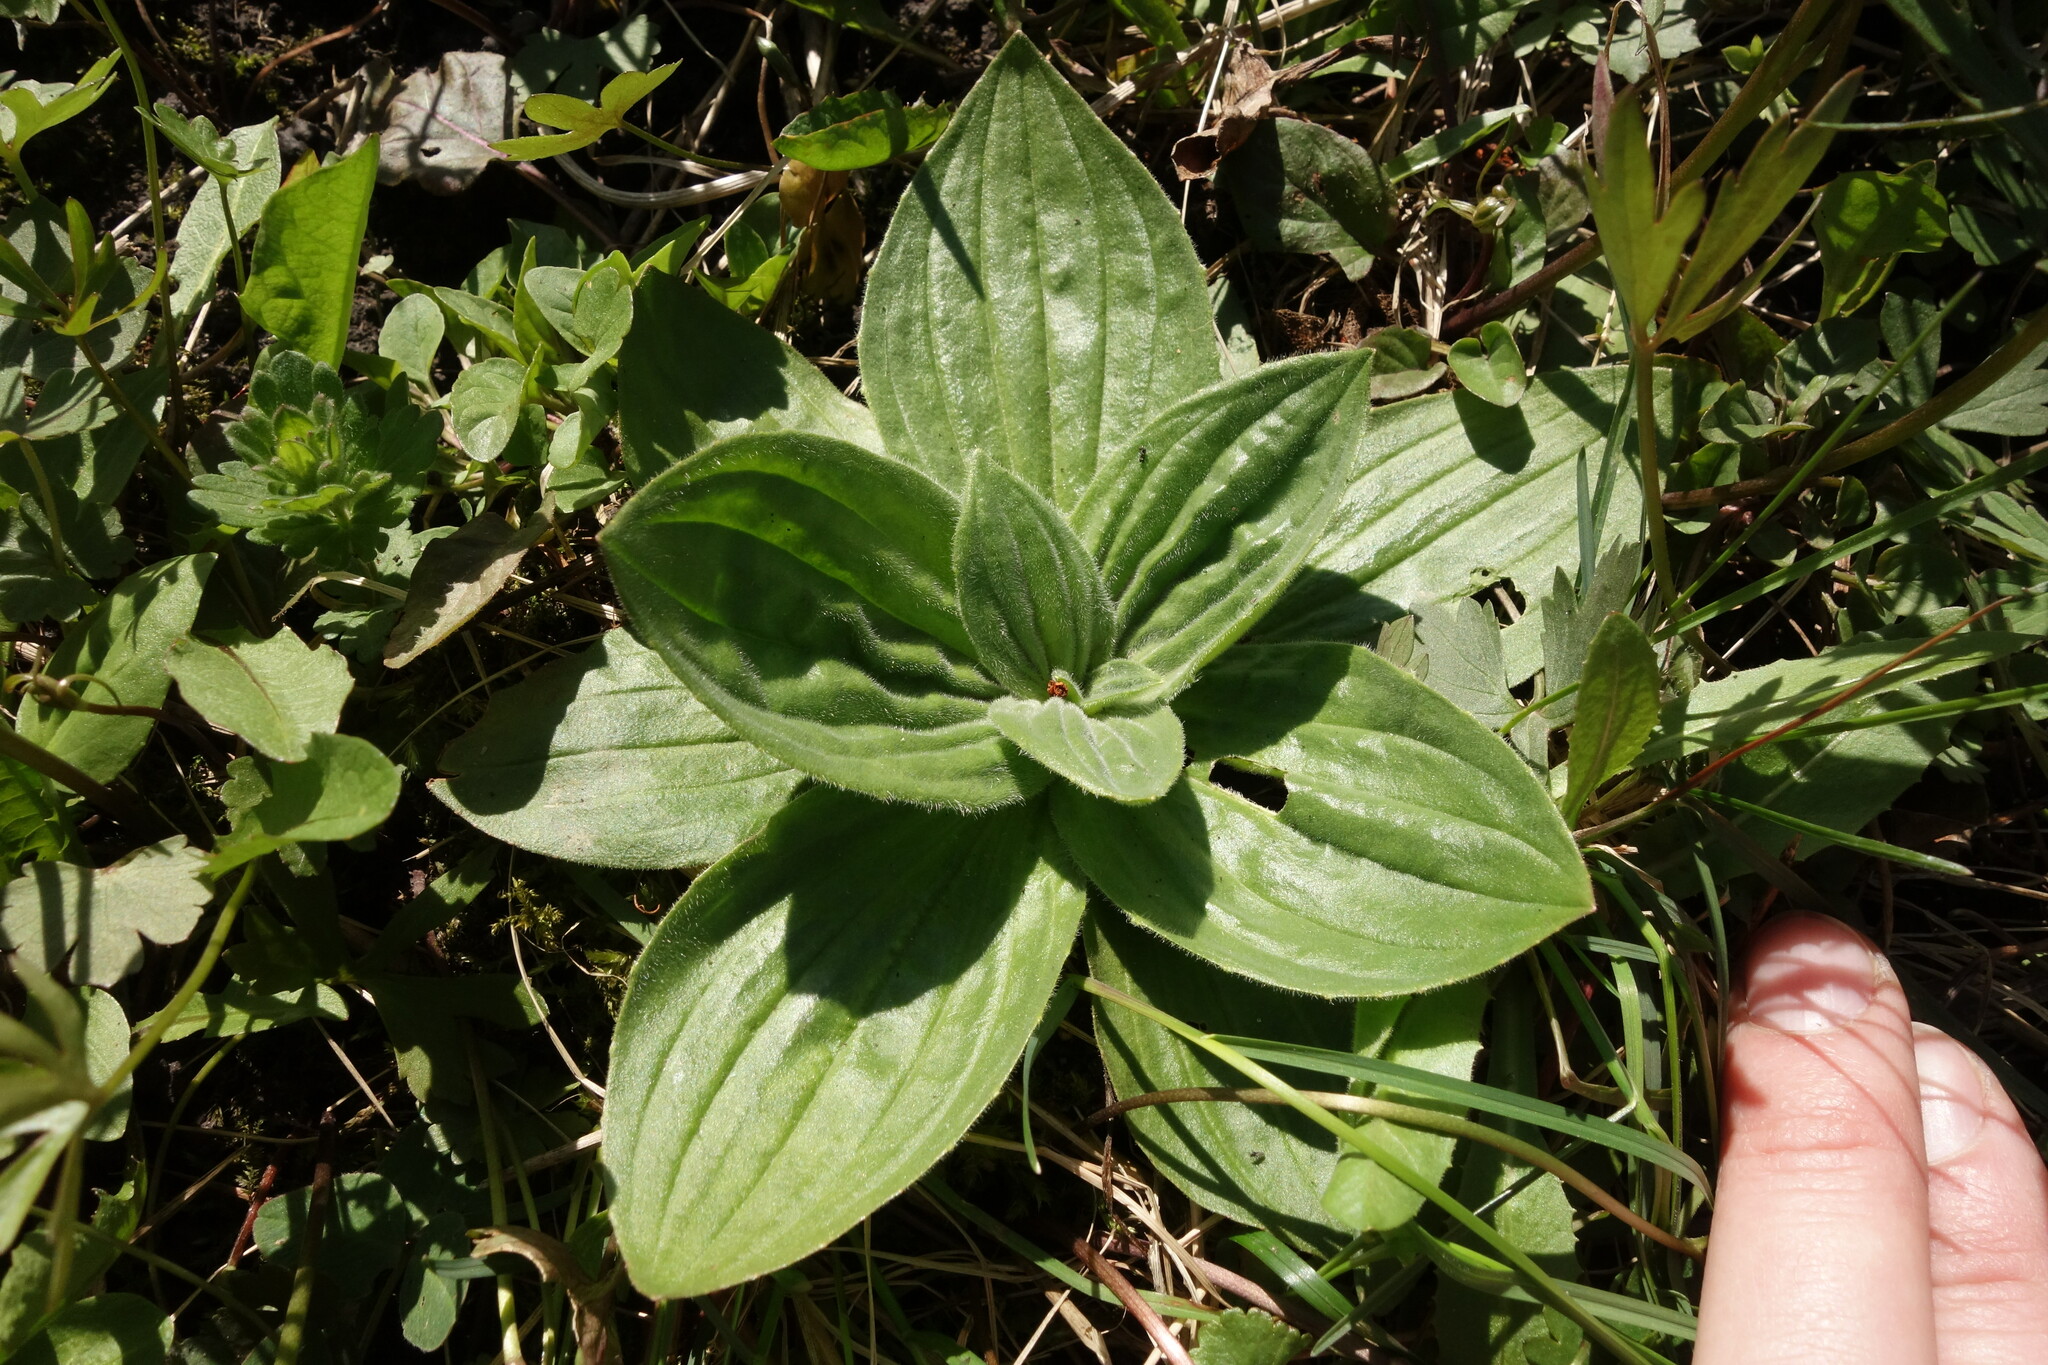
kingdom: Plantae
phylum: Tracheophyta
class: Magnoliopsida
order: Lamiales
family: Plantaginaceae
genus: Plantago
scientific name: Plantago media
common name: Hoary plantain
